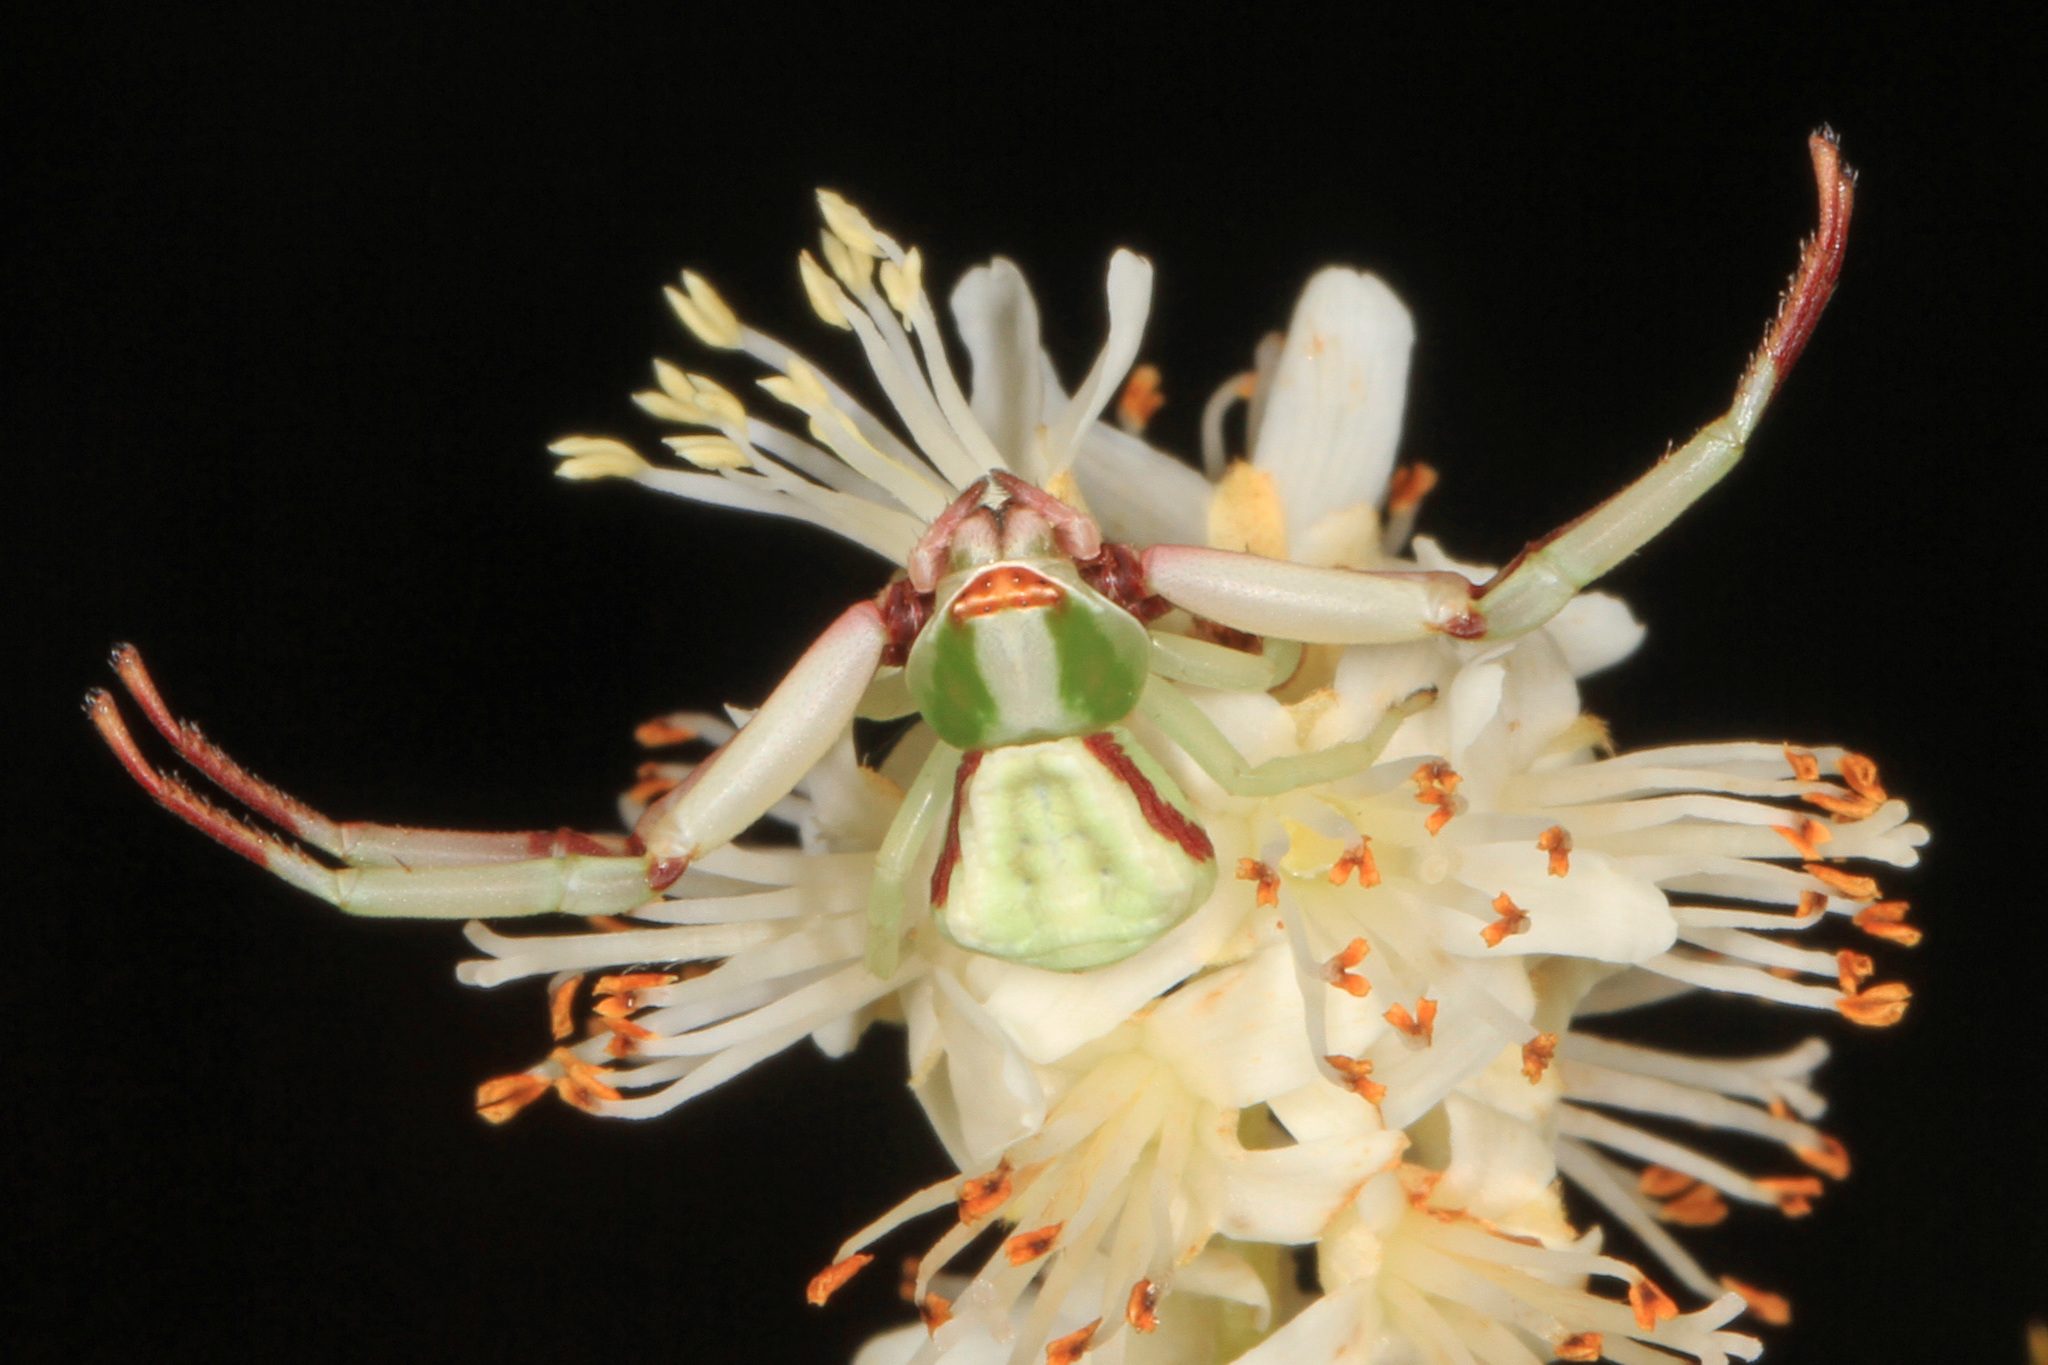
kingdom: Animalia
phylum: Arthropoda
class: Arachnida
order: Araneae
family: Thomisidae
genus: Misumenoides
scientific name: Misumenoides formosipes
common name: White-banded crab spider
